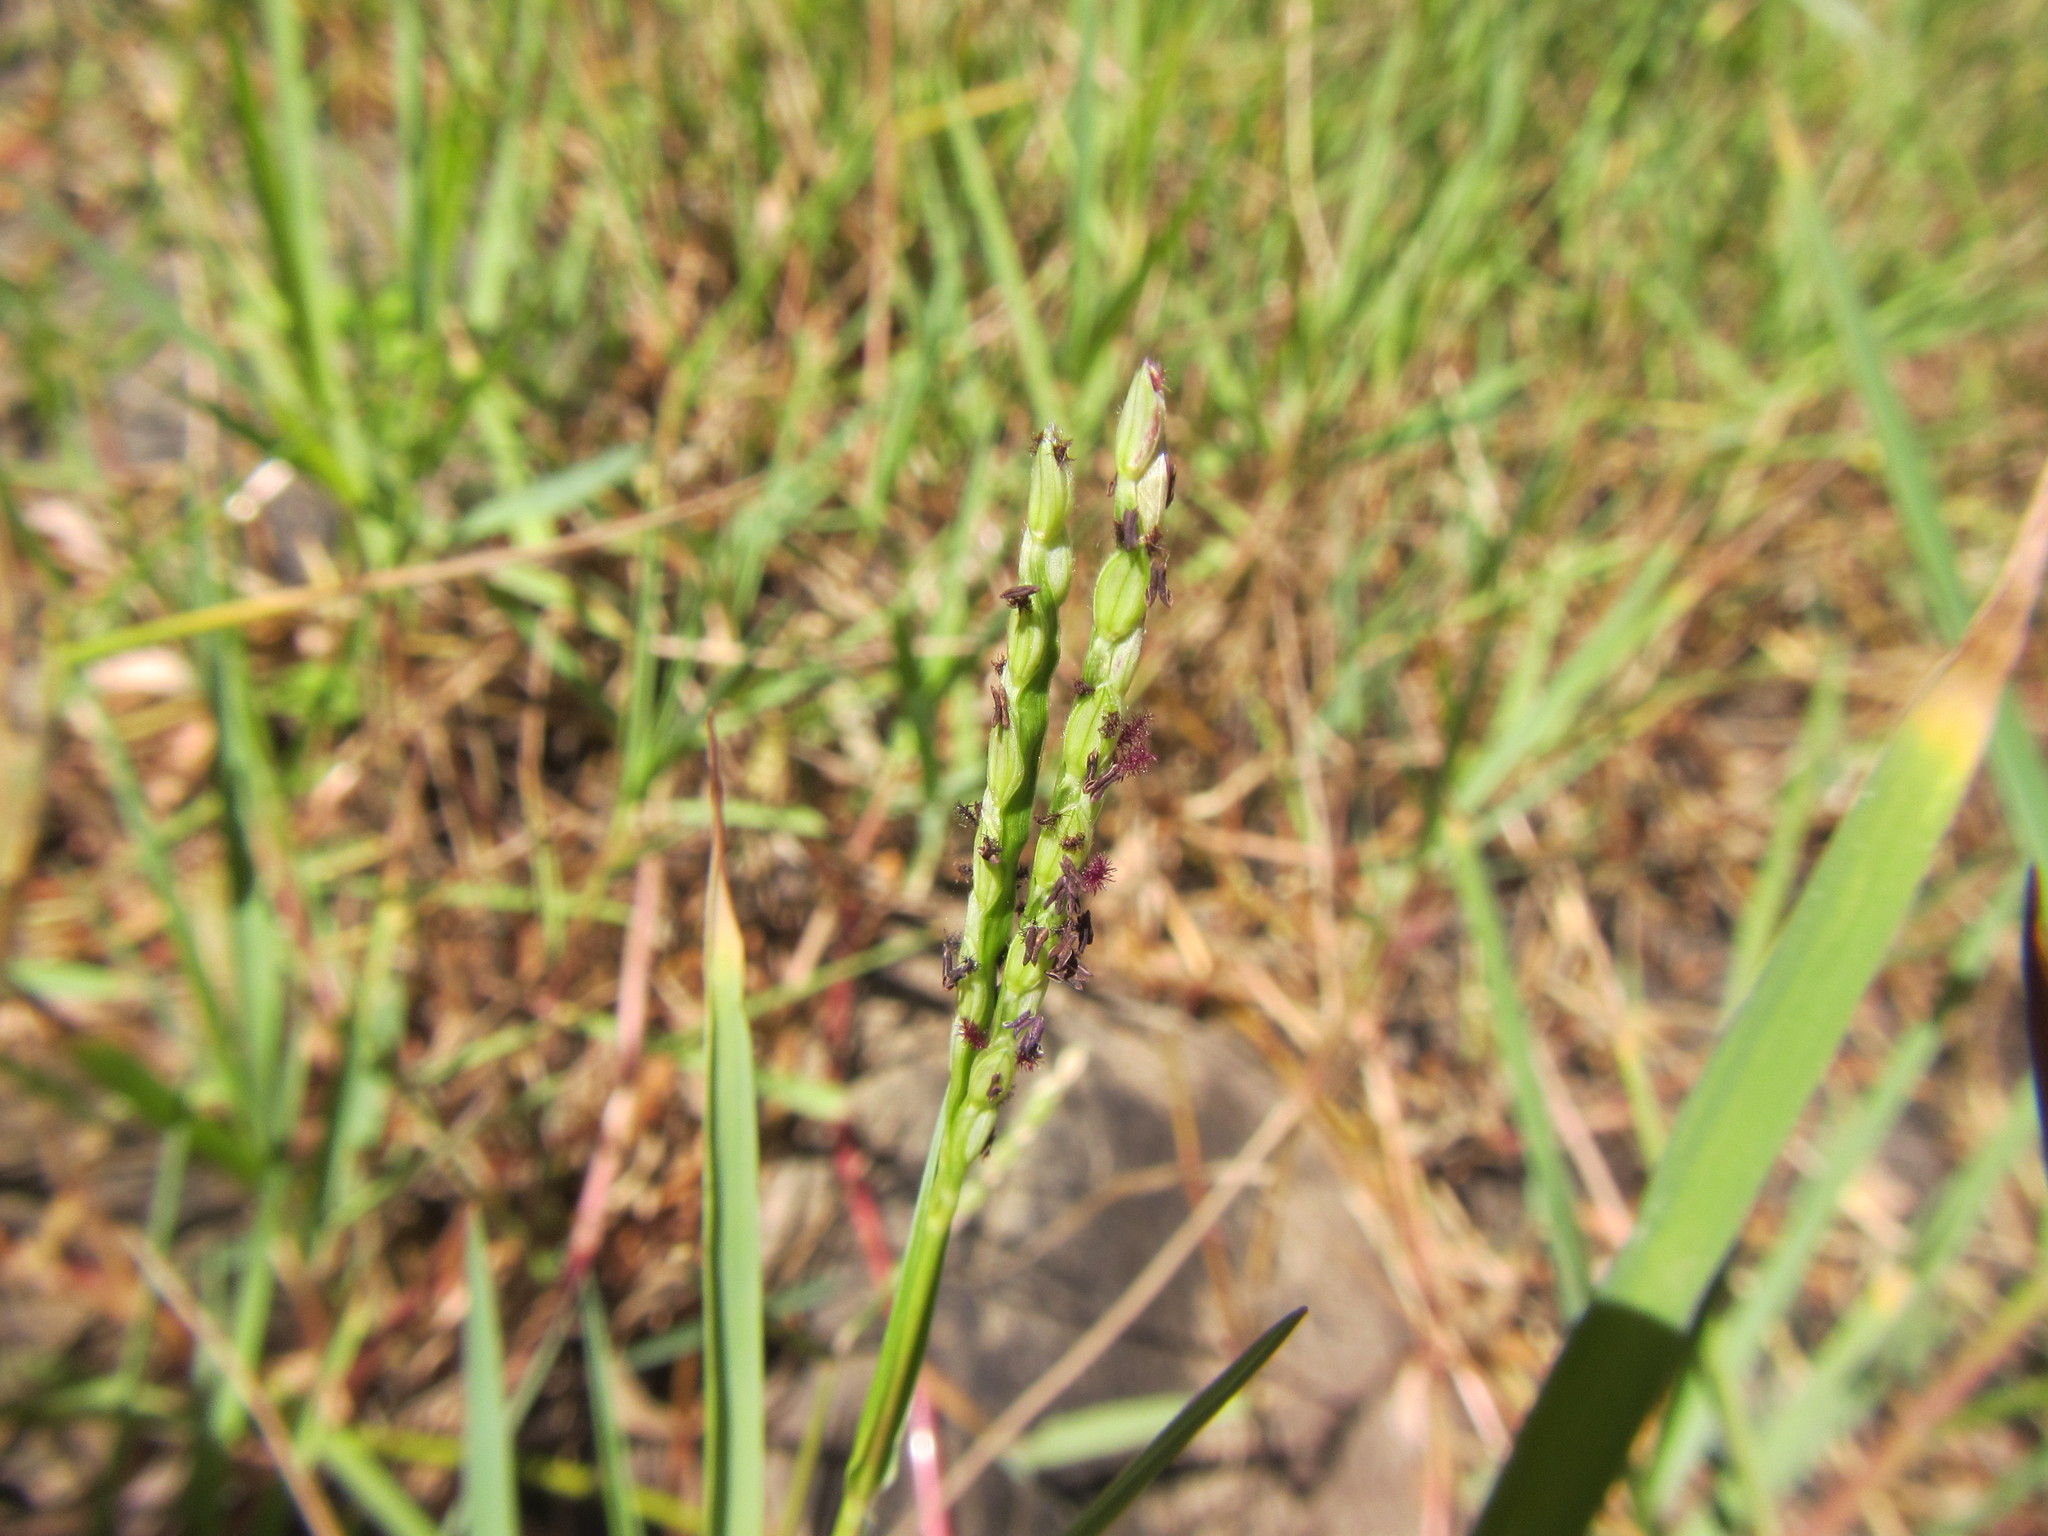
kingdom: Plantae
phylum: Tracheophyta
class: Liliopsida
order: Poales
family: Poaceae
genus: Paspalum
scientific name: Paspalum distichum
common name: Knotgrass
